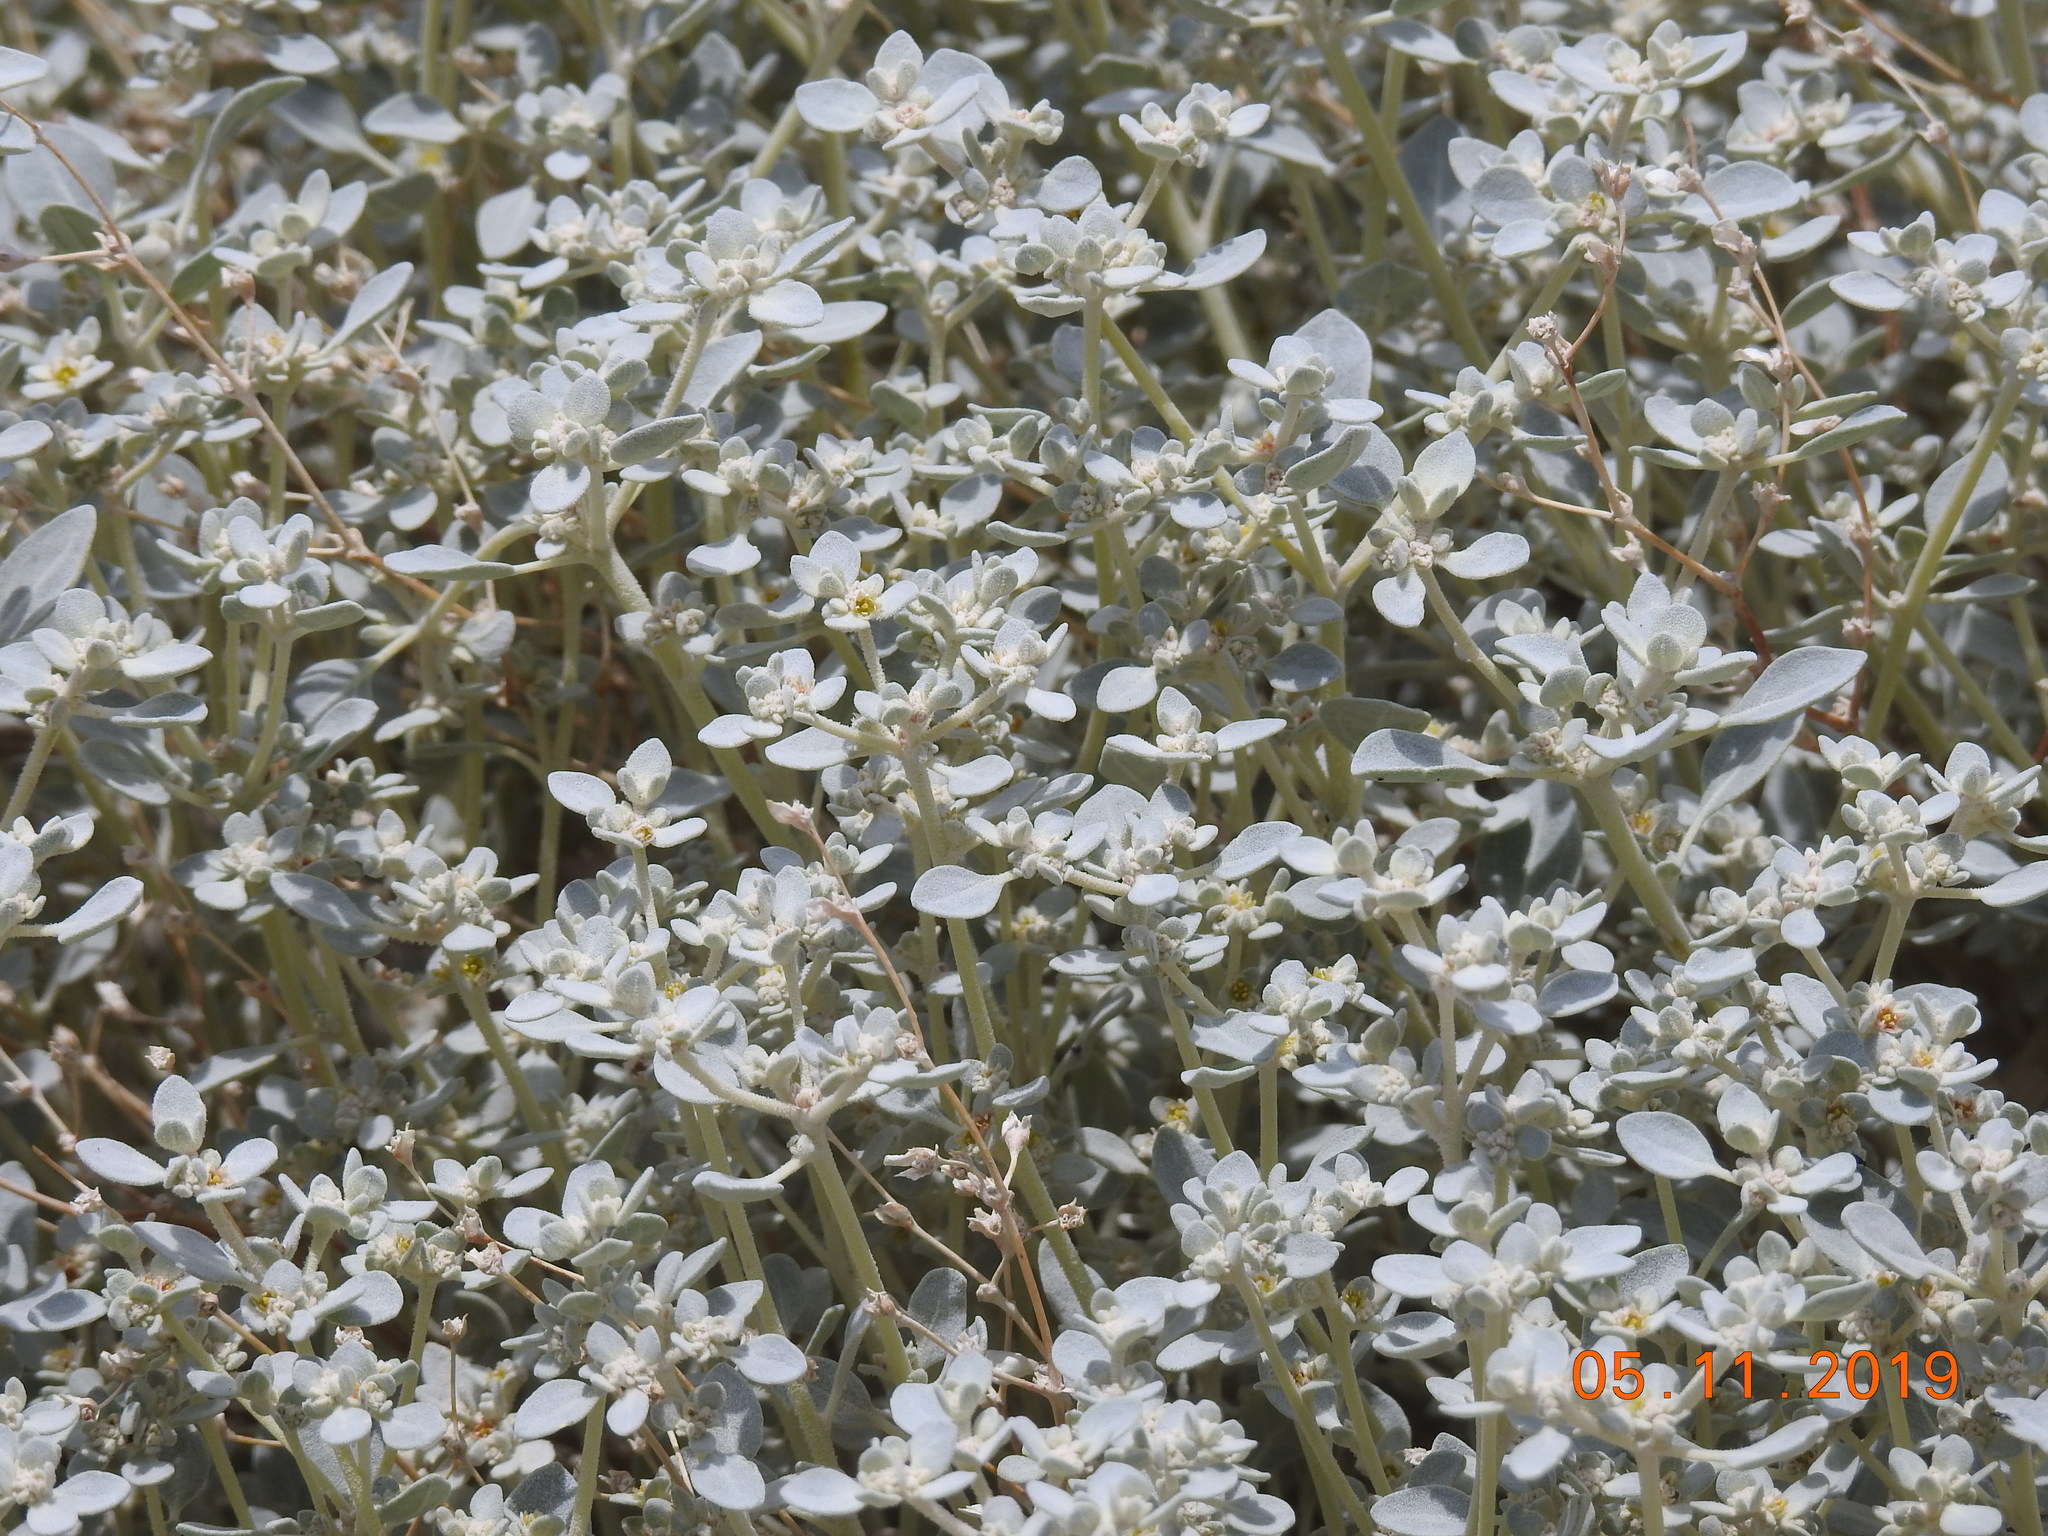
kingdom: Plantae
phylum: Tracheophyta
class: Magnoliopsida
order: Caryophyllales
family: Amaranthaceae
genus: Tidestromia
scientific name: Tidestromia suffruticosa
